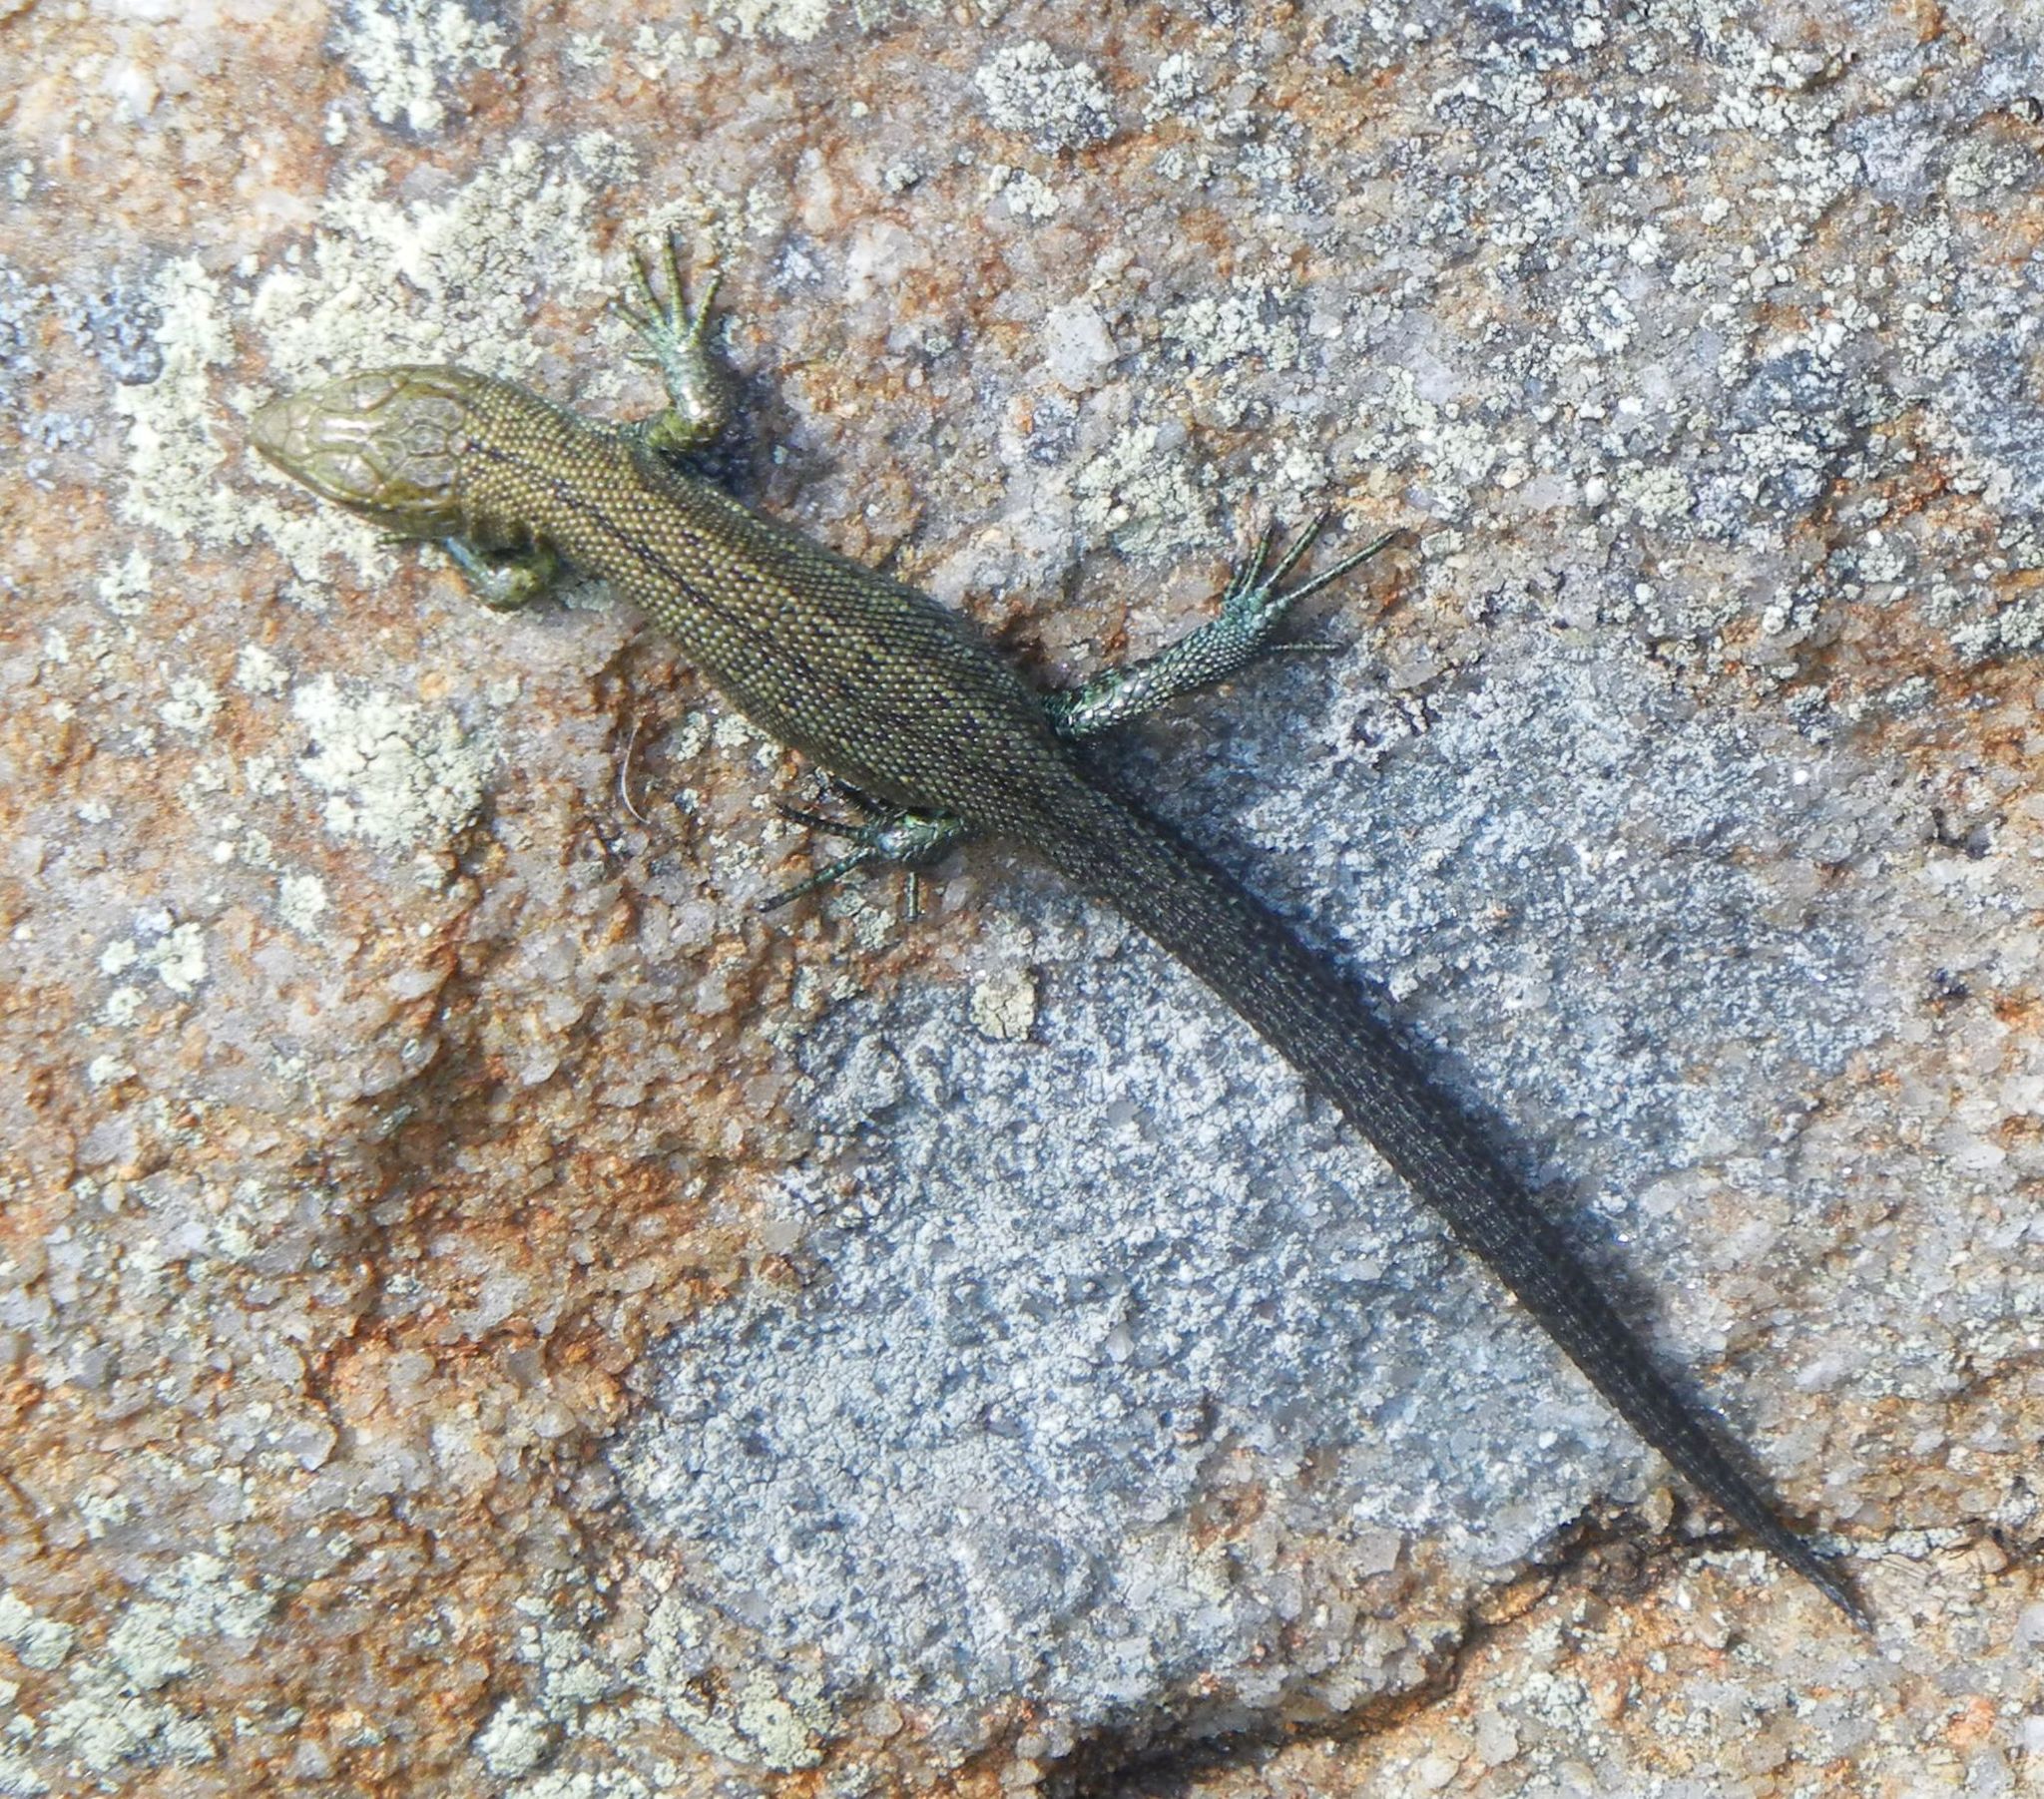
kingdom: Animalia
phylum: Chordata
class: Squamata
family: Lacertidae
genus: Zootoca
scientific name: Zootoca vivipara
